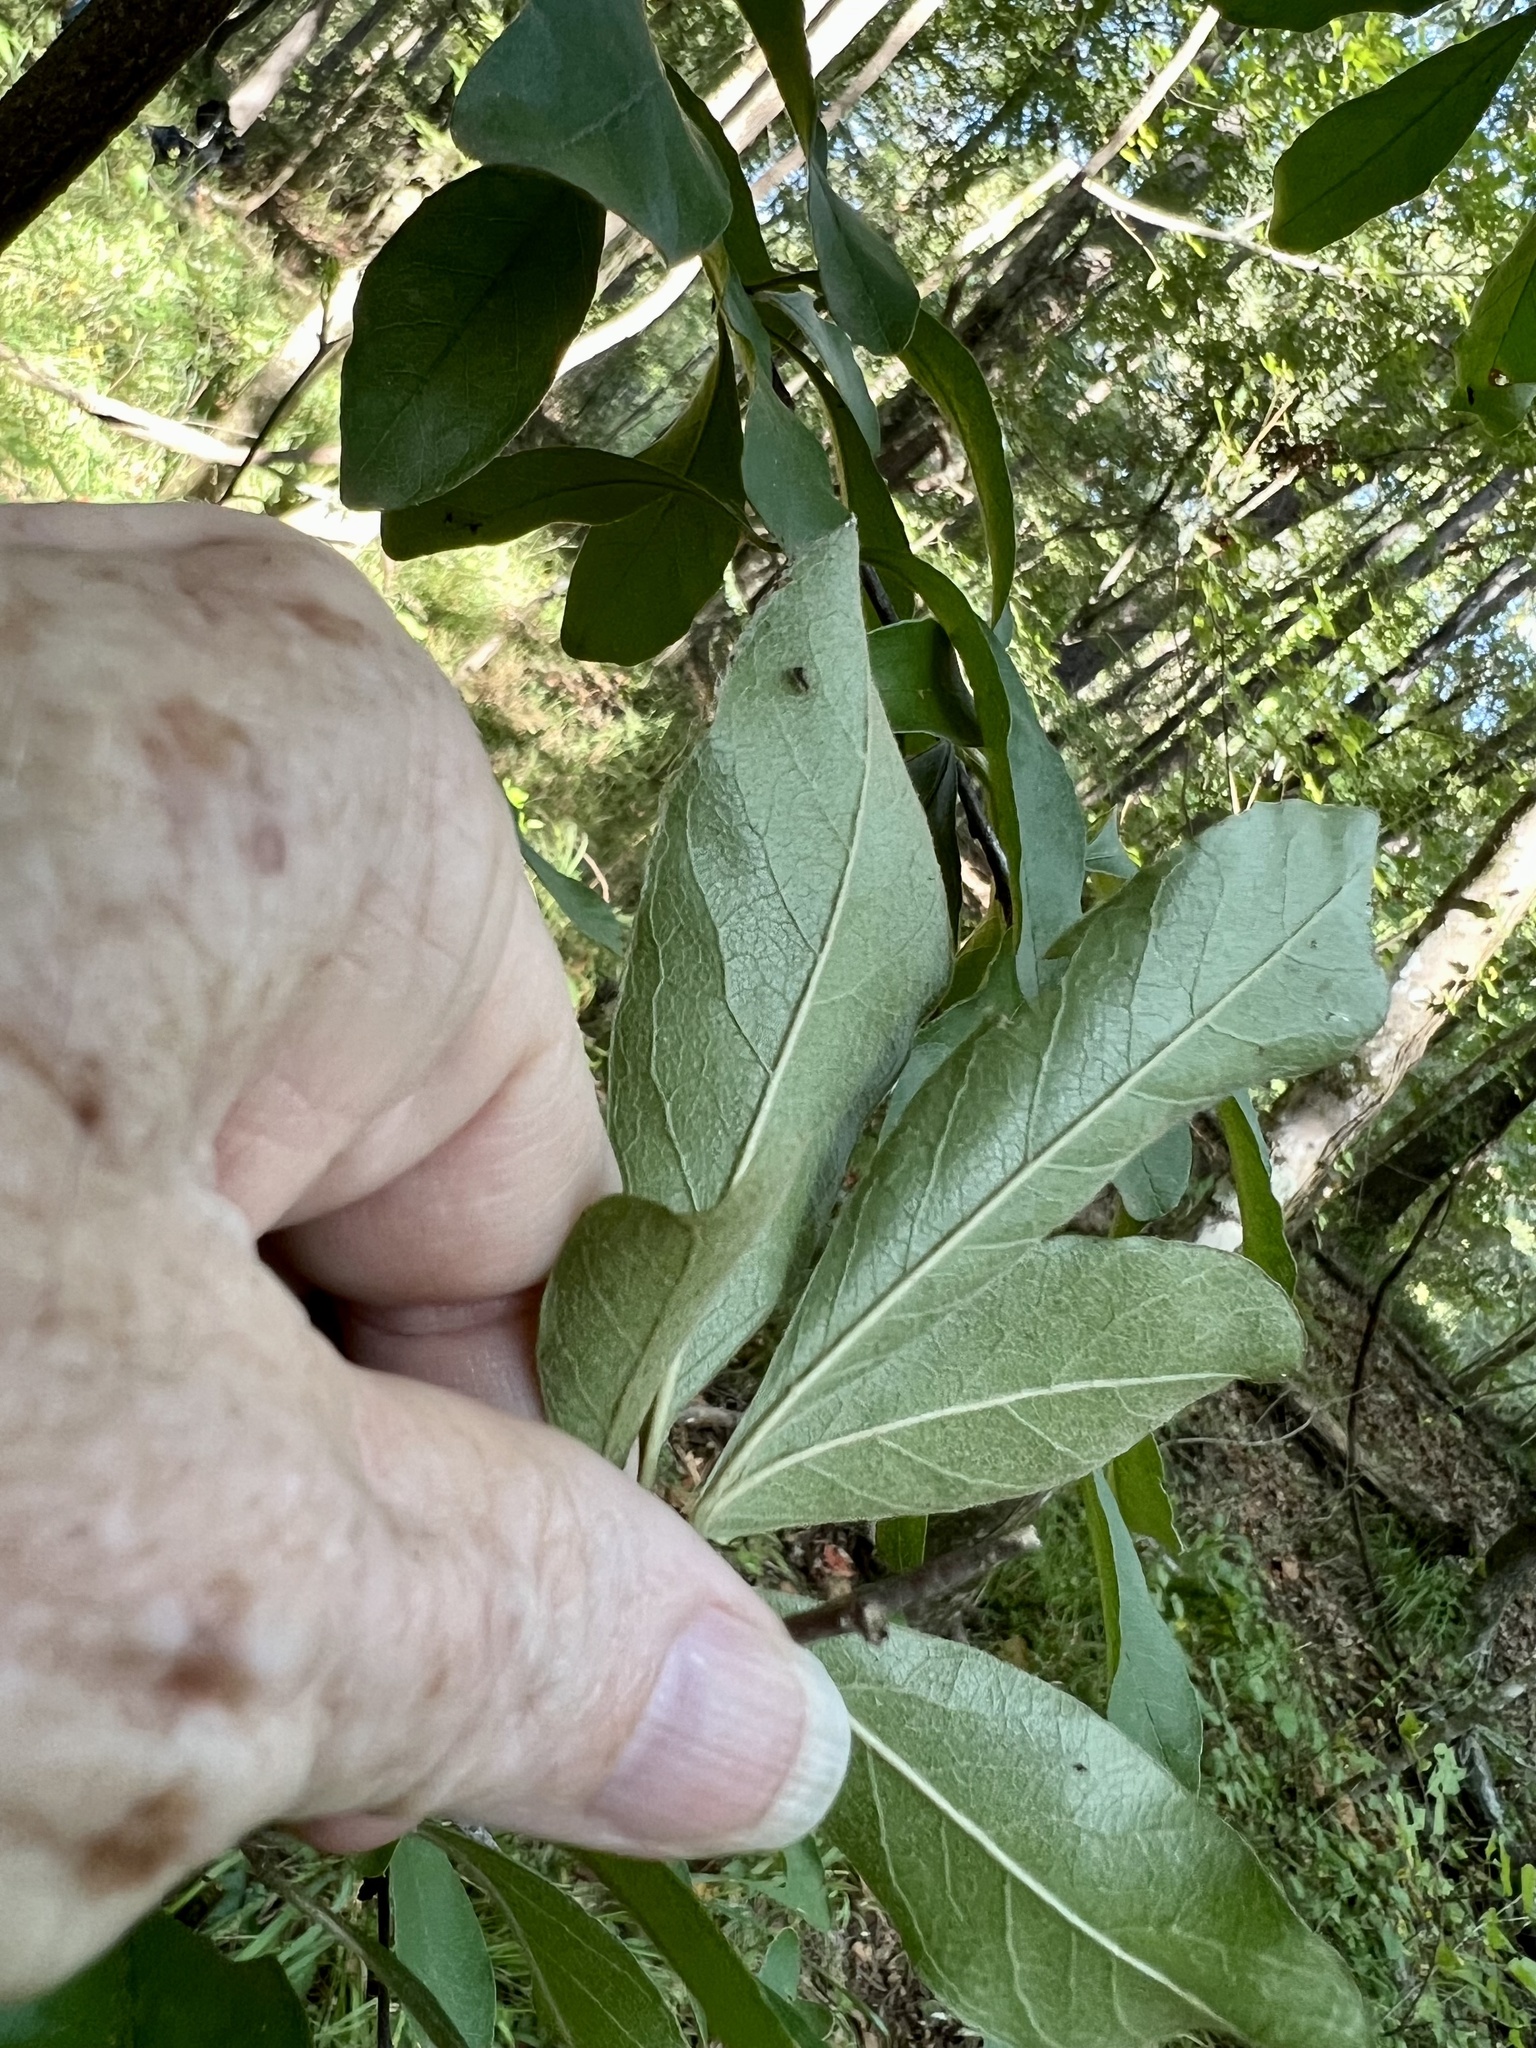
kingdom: Plantae
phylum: Tracheophyta
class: Magnoliopsida
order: Ericales
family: Sapotaceae
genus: Sideroxylon
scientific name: Sideroxylon lanuginosum
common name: Chittamwood
